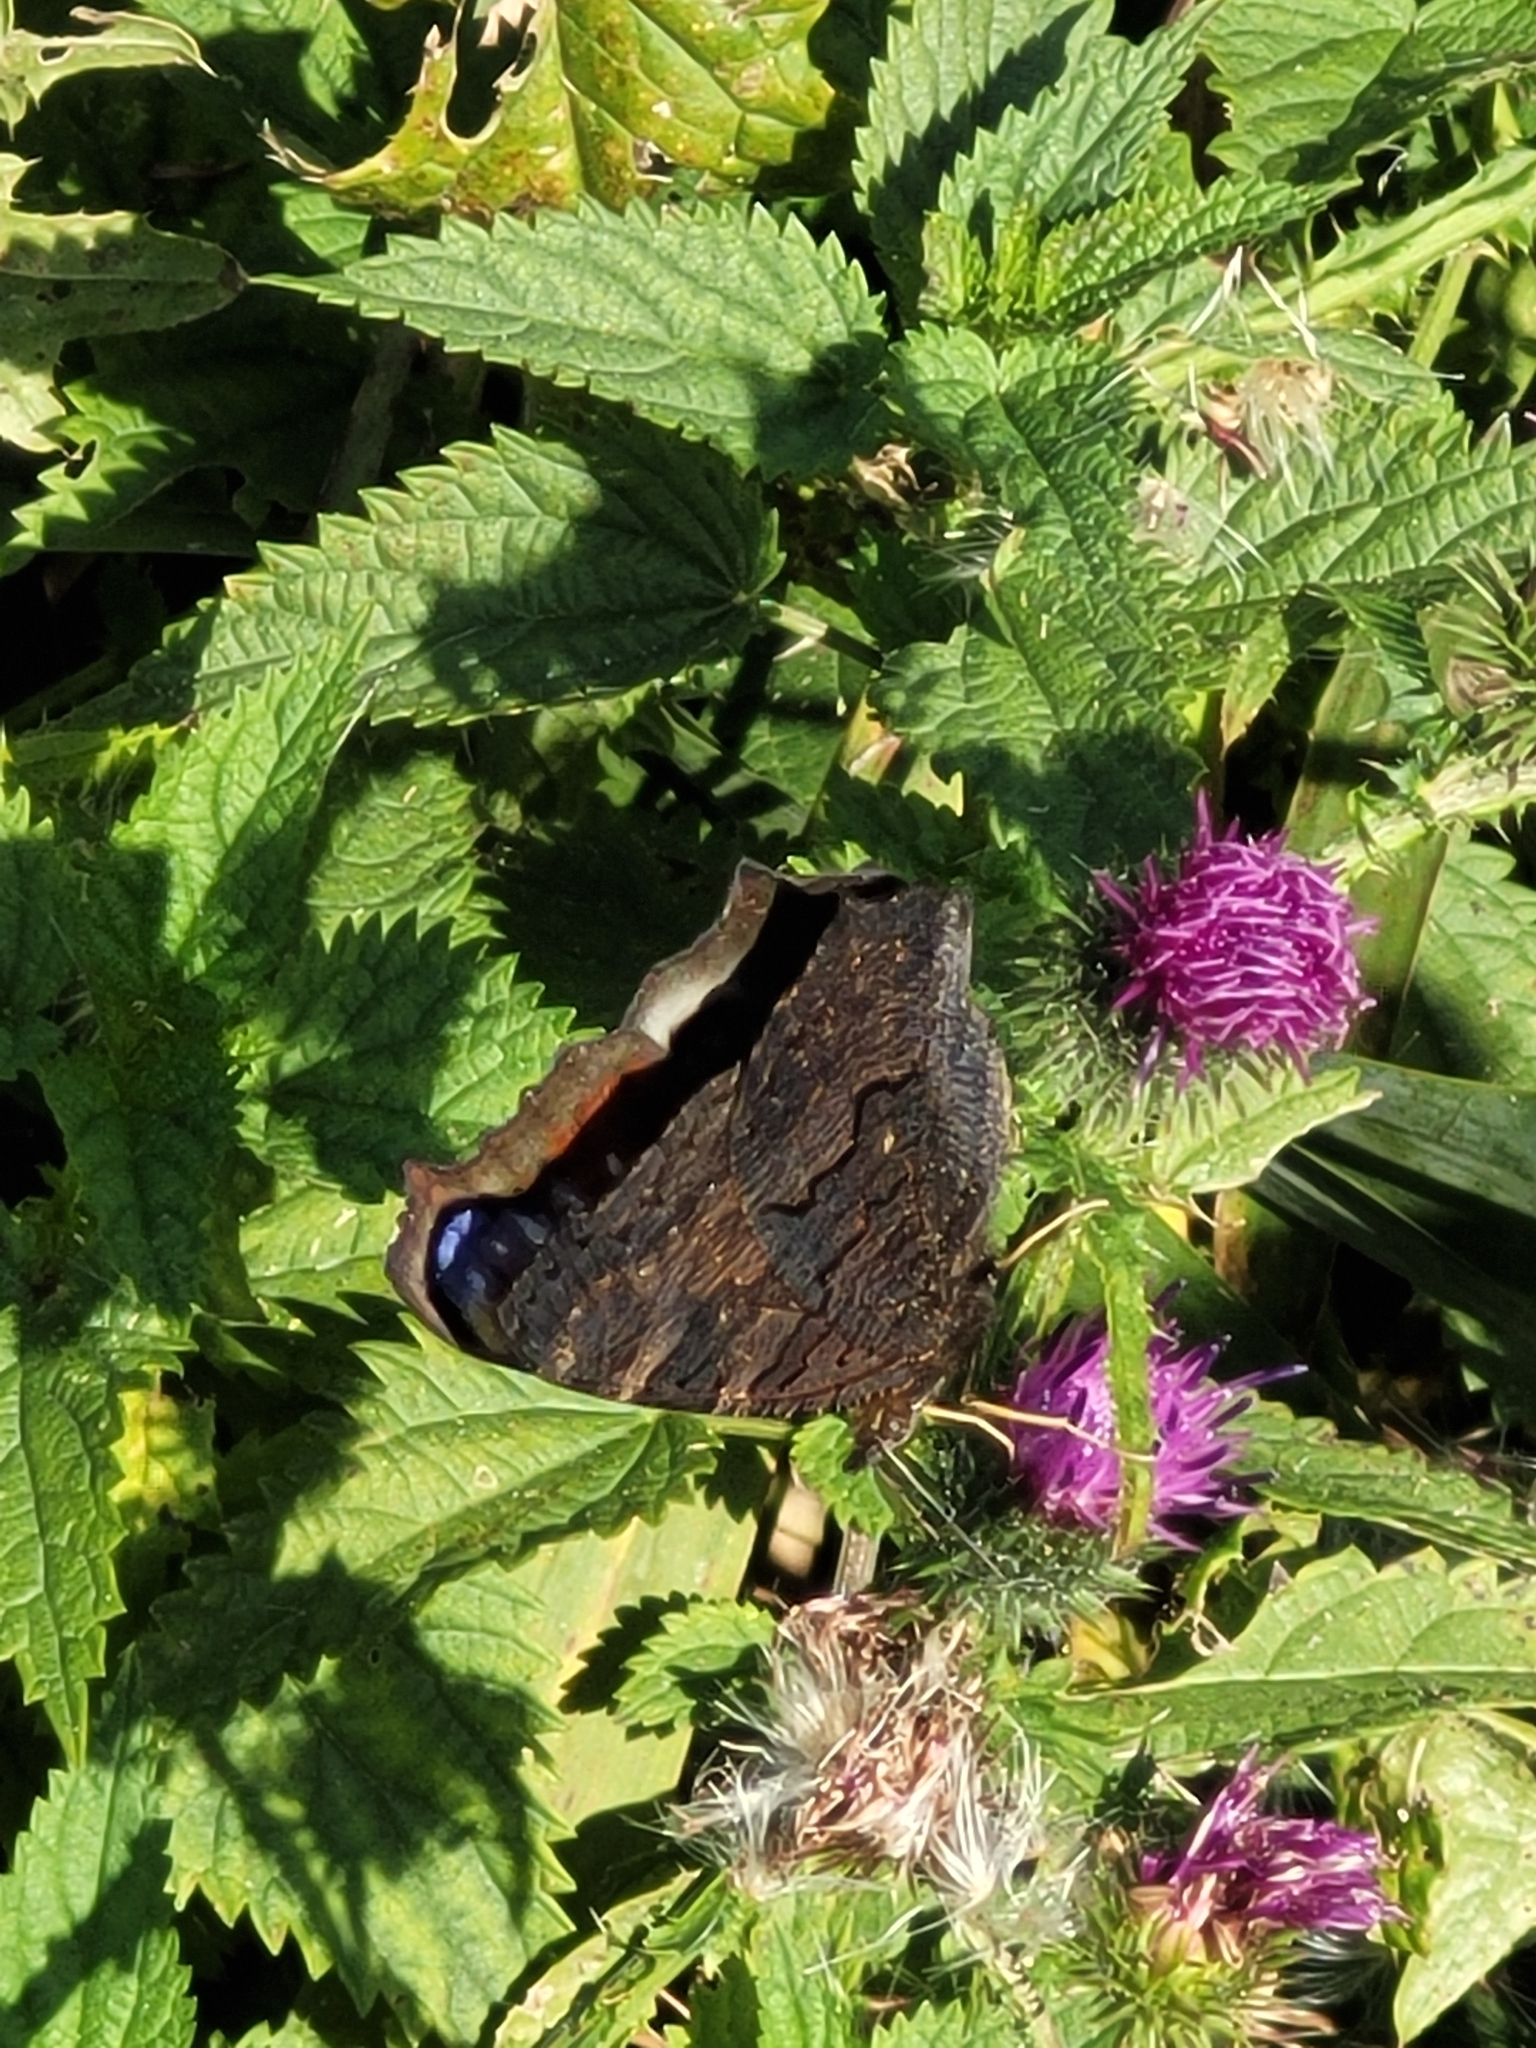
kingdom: Animalia
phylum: Arthropoda
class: Insecta
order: Lepidoptera
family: Nymphalidae
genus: Aglais
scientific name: Aglais io
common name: Peacock
